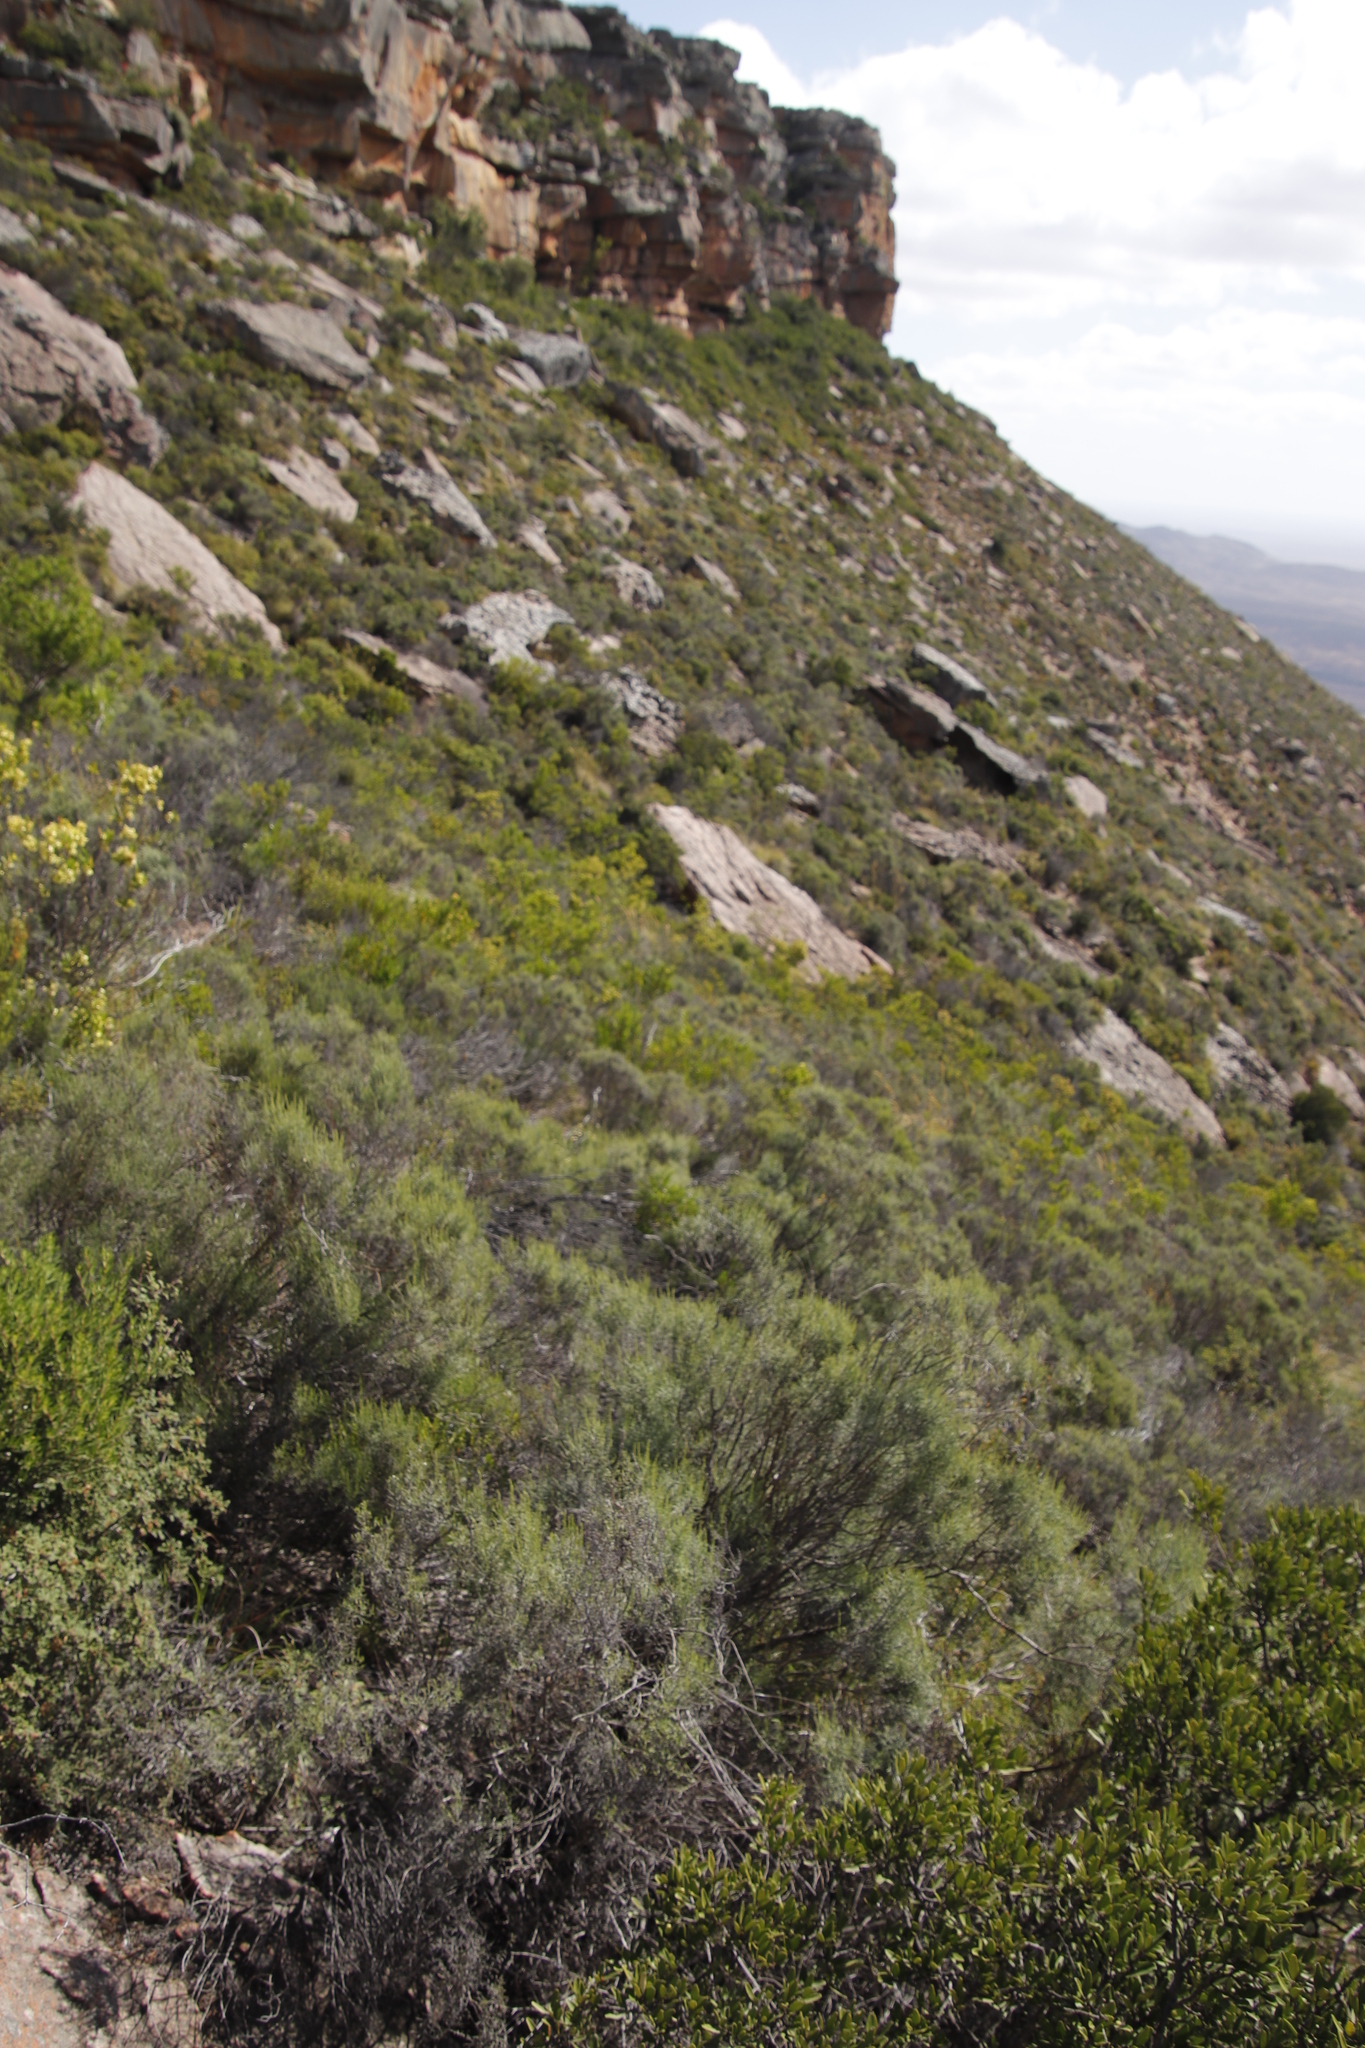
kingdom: Plantae
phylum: Tracheophyta
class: Magnoliopsida
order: Asterales
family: Asteraceae
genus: Dicerothamnus
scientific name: Dicerothamnus rhinocerotis
